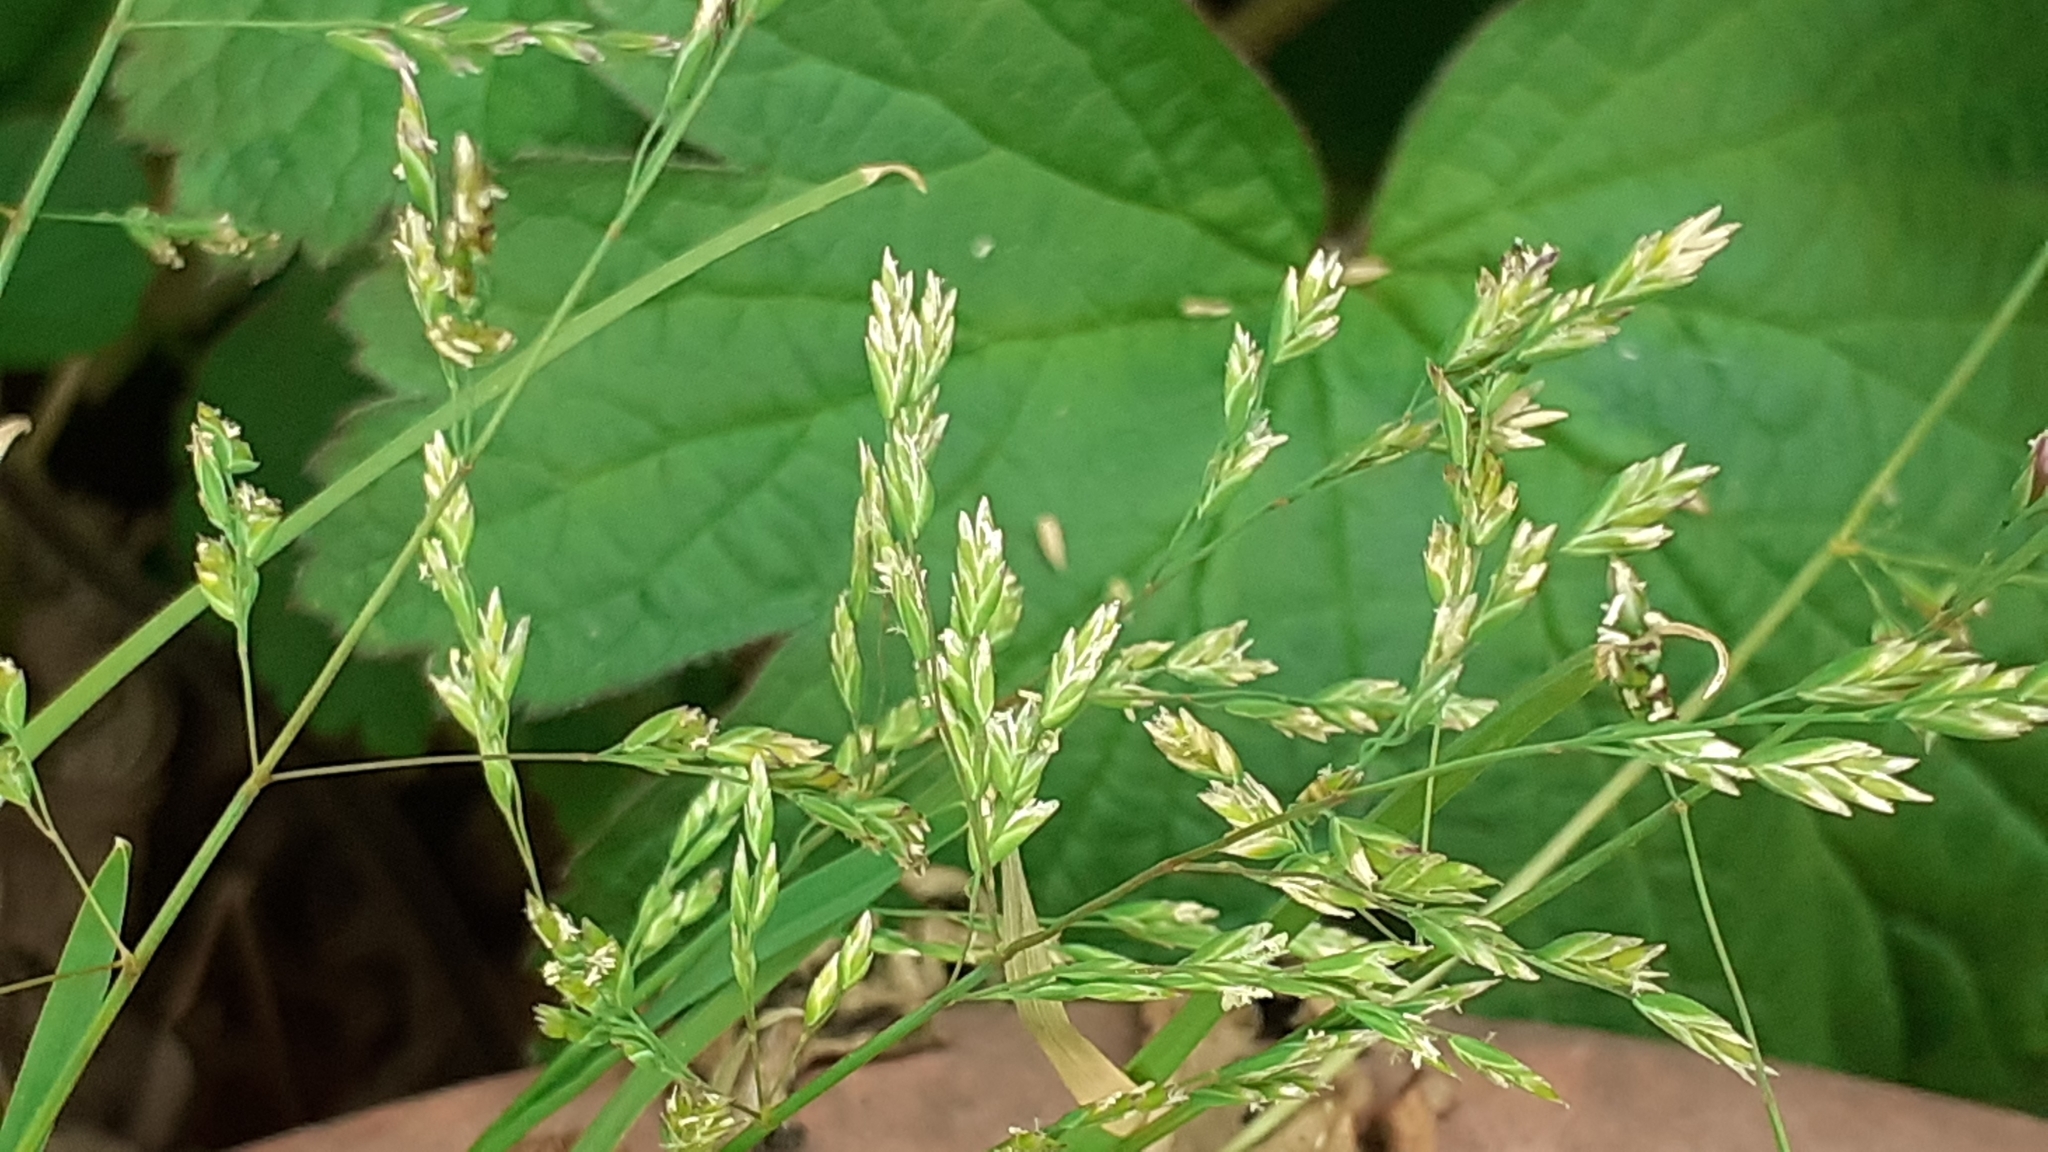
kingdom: Plantae
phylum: Tracheophyta
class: Liliopsida
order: Poales
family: Poaceae
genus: Poa
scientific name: Poa annua
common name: Annual bluegrass
